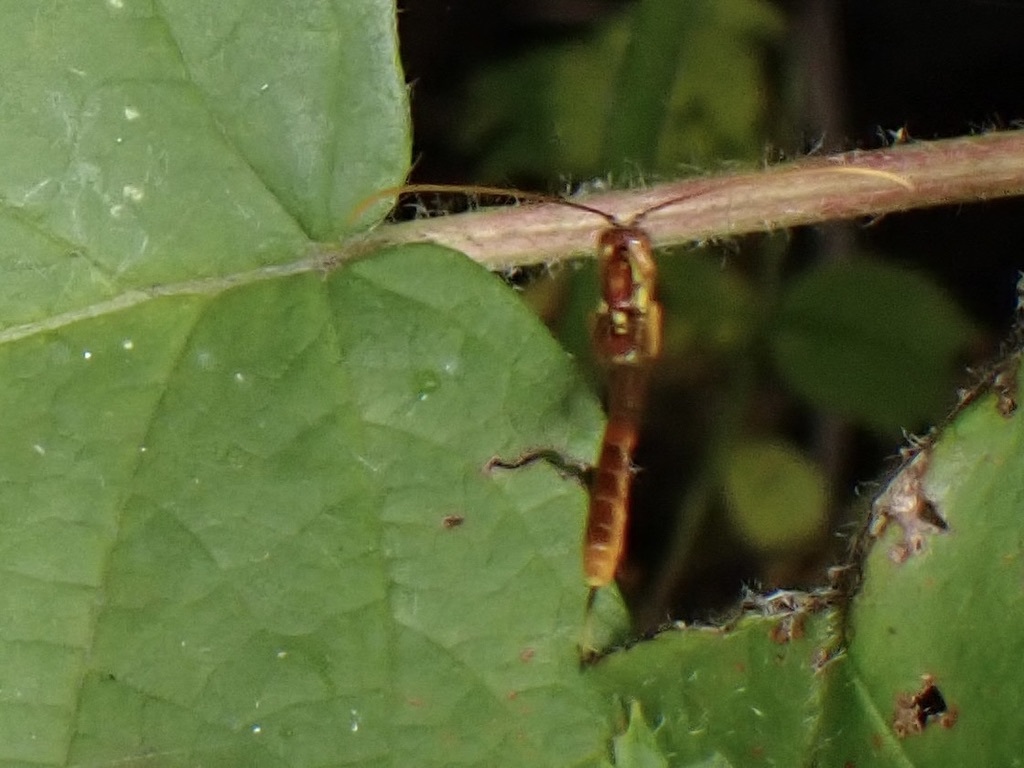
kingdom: Animalia
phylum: Arthropoda
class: Insecta
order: Hymenoptera
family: Ichneumonidae
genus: Grotea
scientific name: Grotea californica
